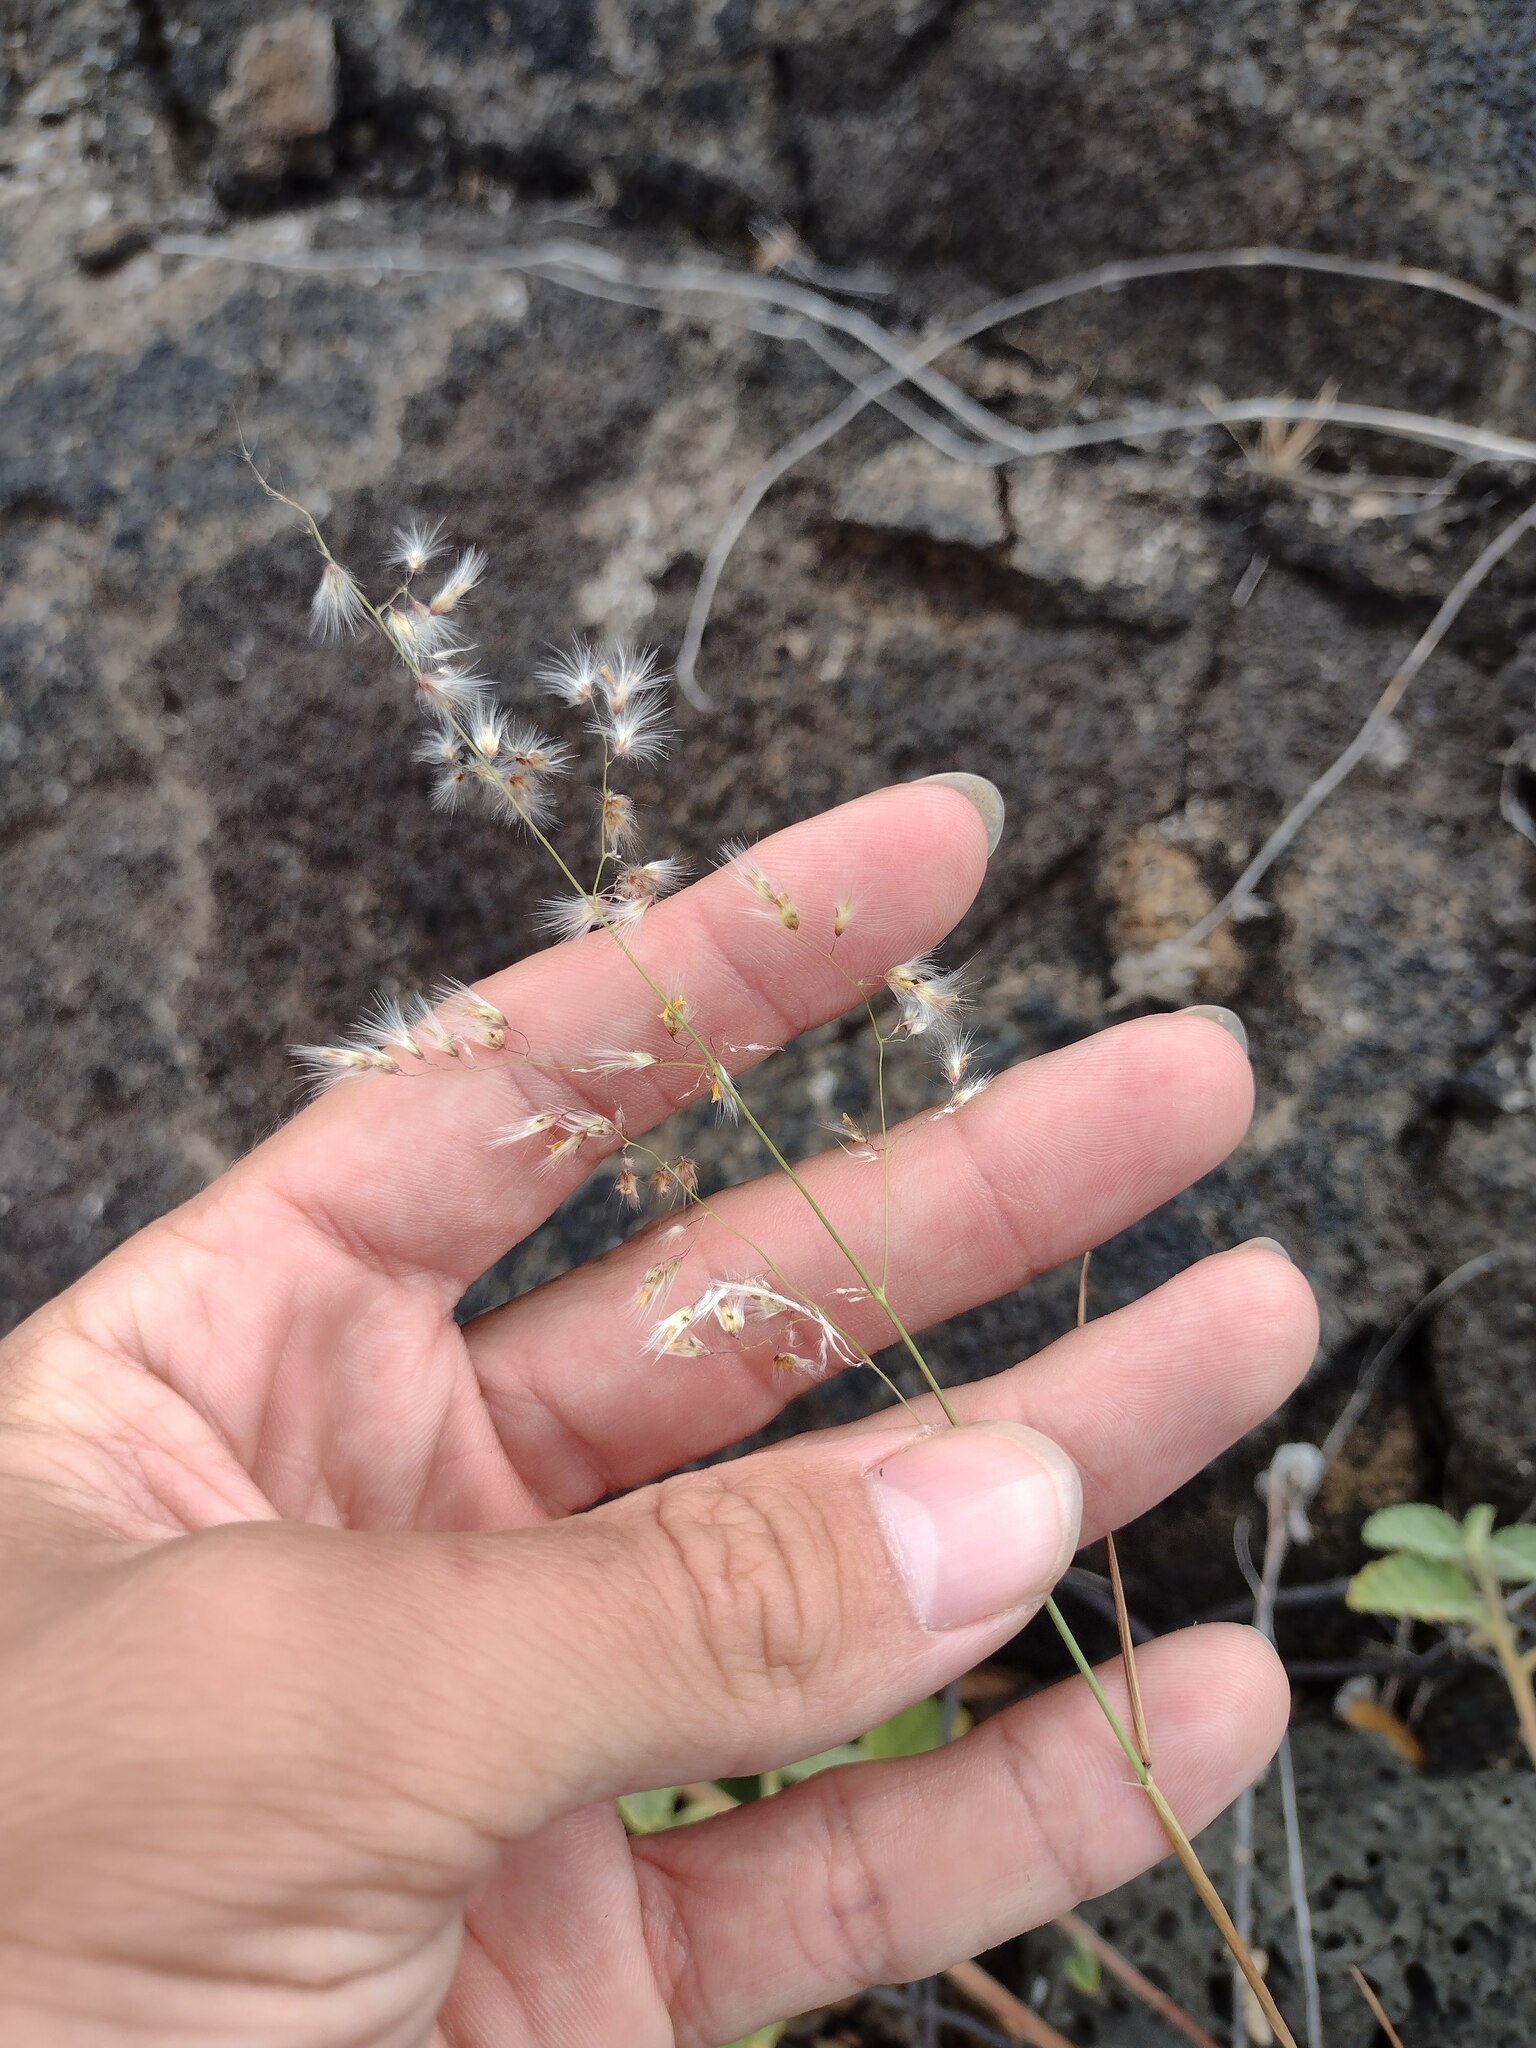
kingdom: Plantae
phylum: Tracheophyta
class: Liliopsida
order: Poales
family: Poaceae
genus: Melinis
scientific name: Melinis repens
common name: Rose natal grass
